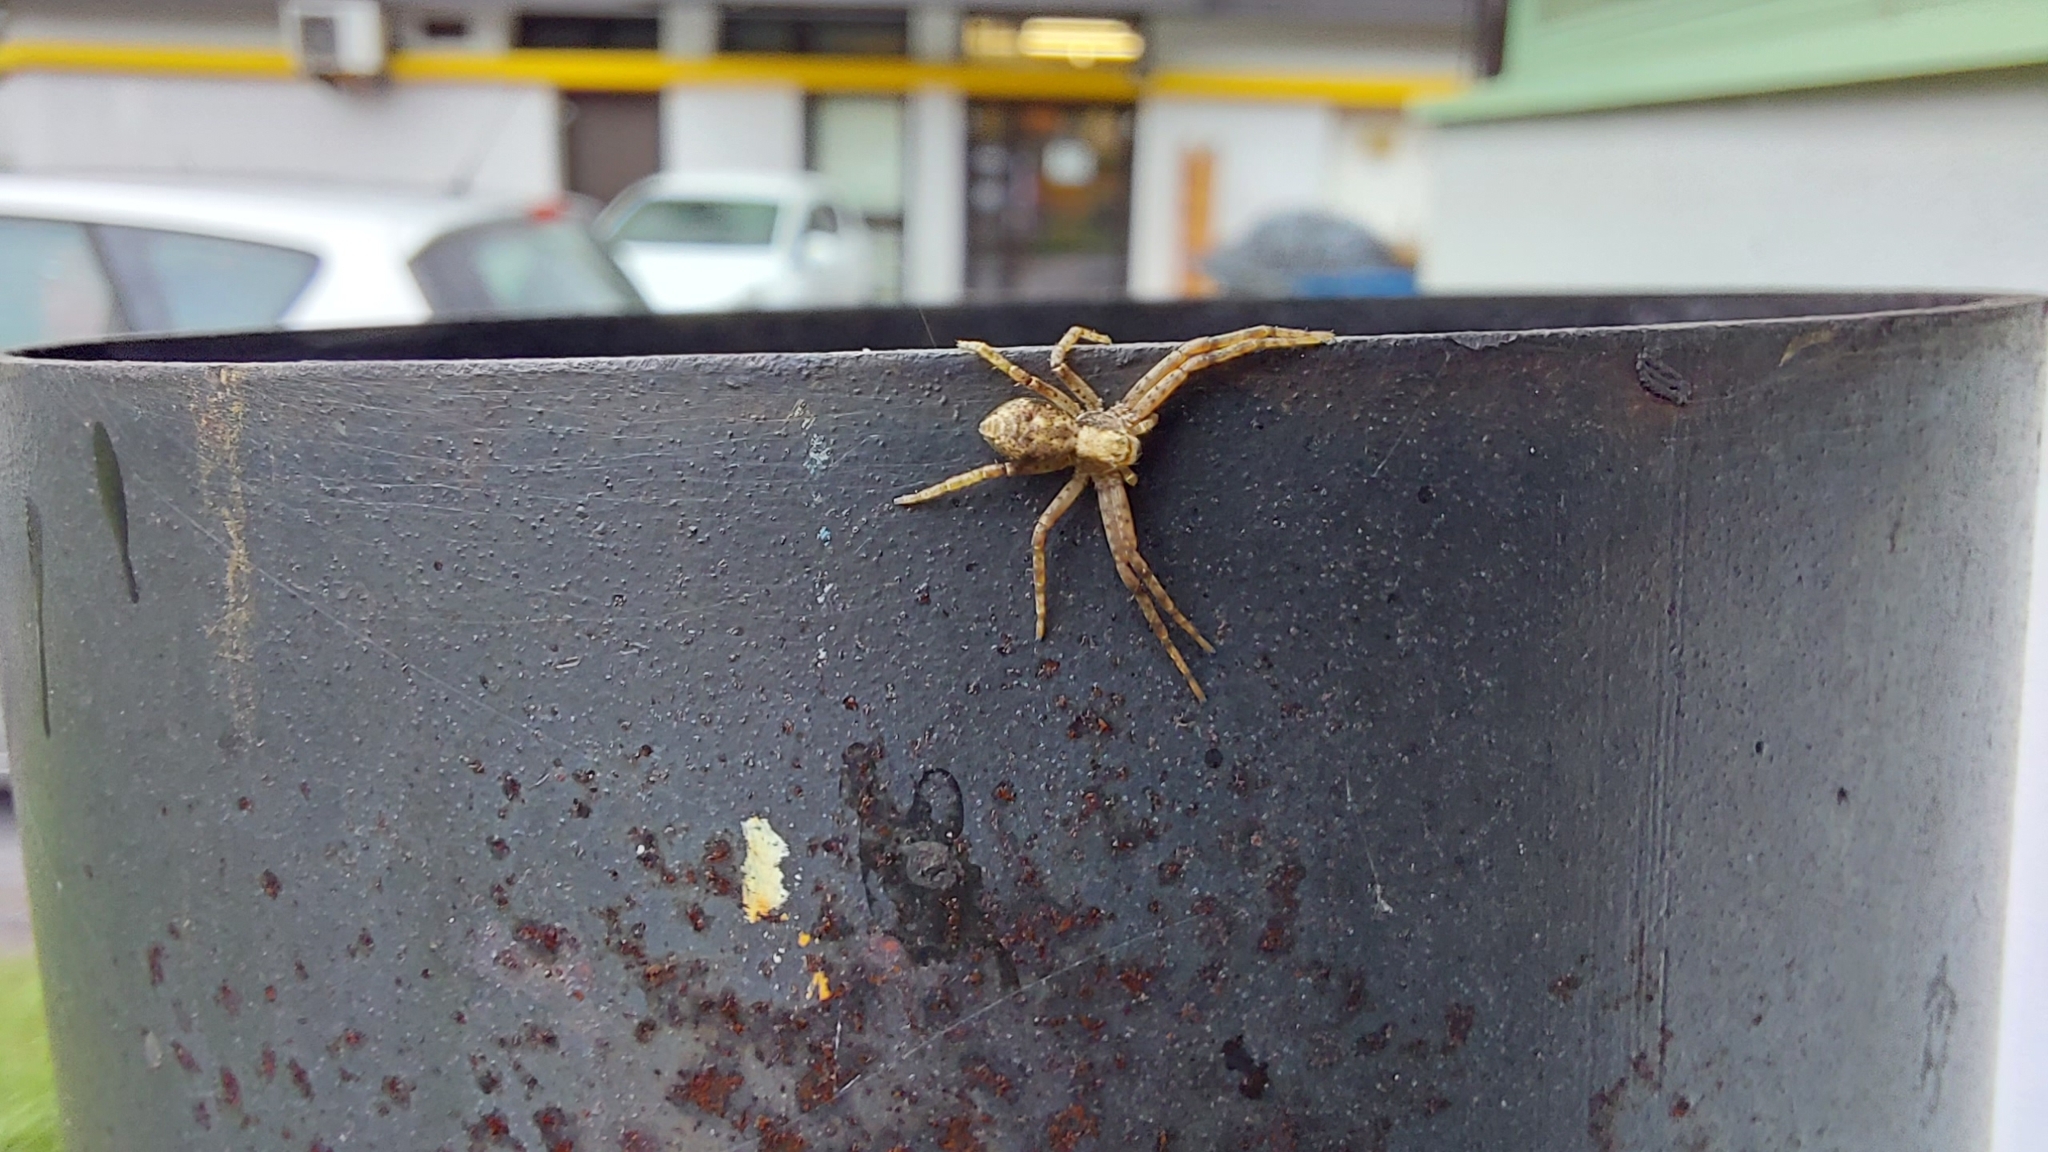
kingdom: Animalia
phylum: Arthropoda
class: Arachnida
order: Araneae
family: Philodromidae
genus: Philodromus
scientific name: Philodromus
